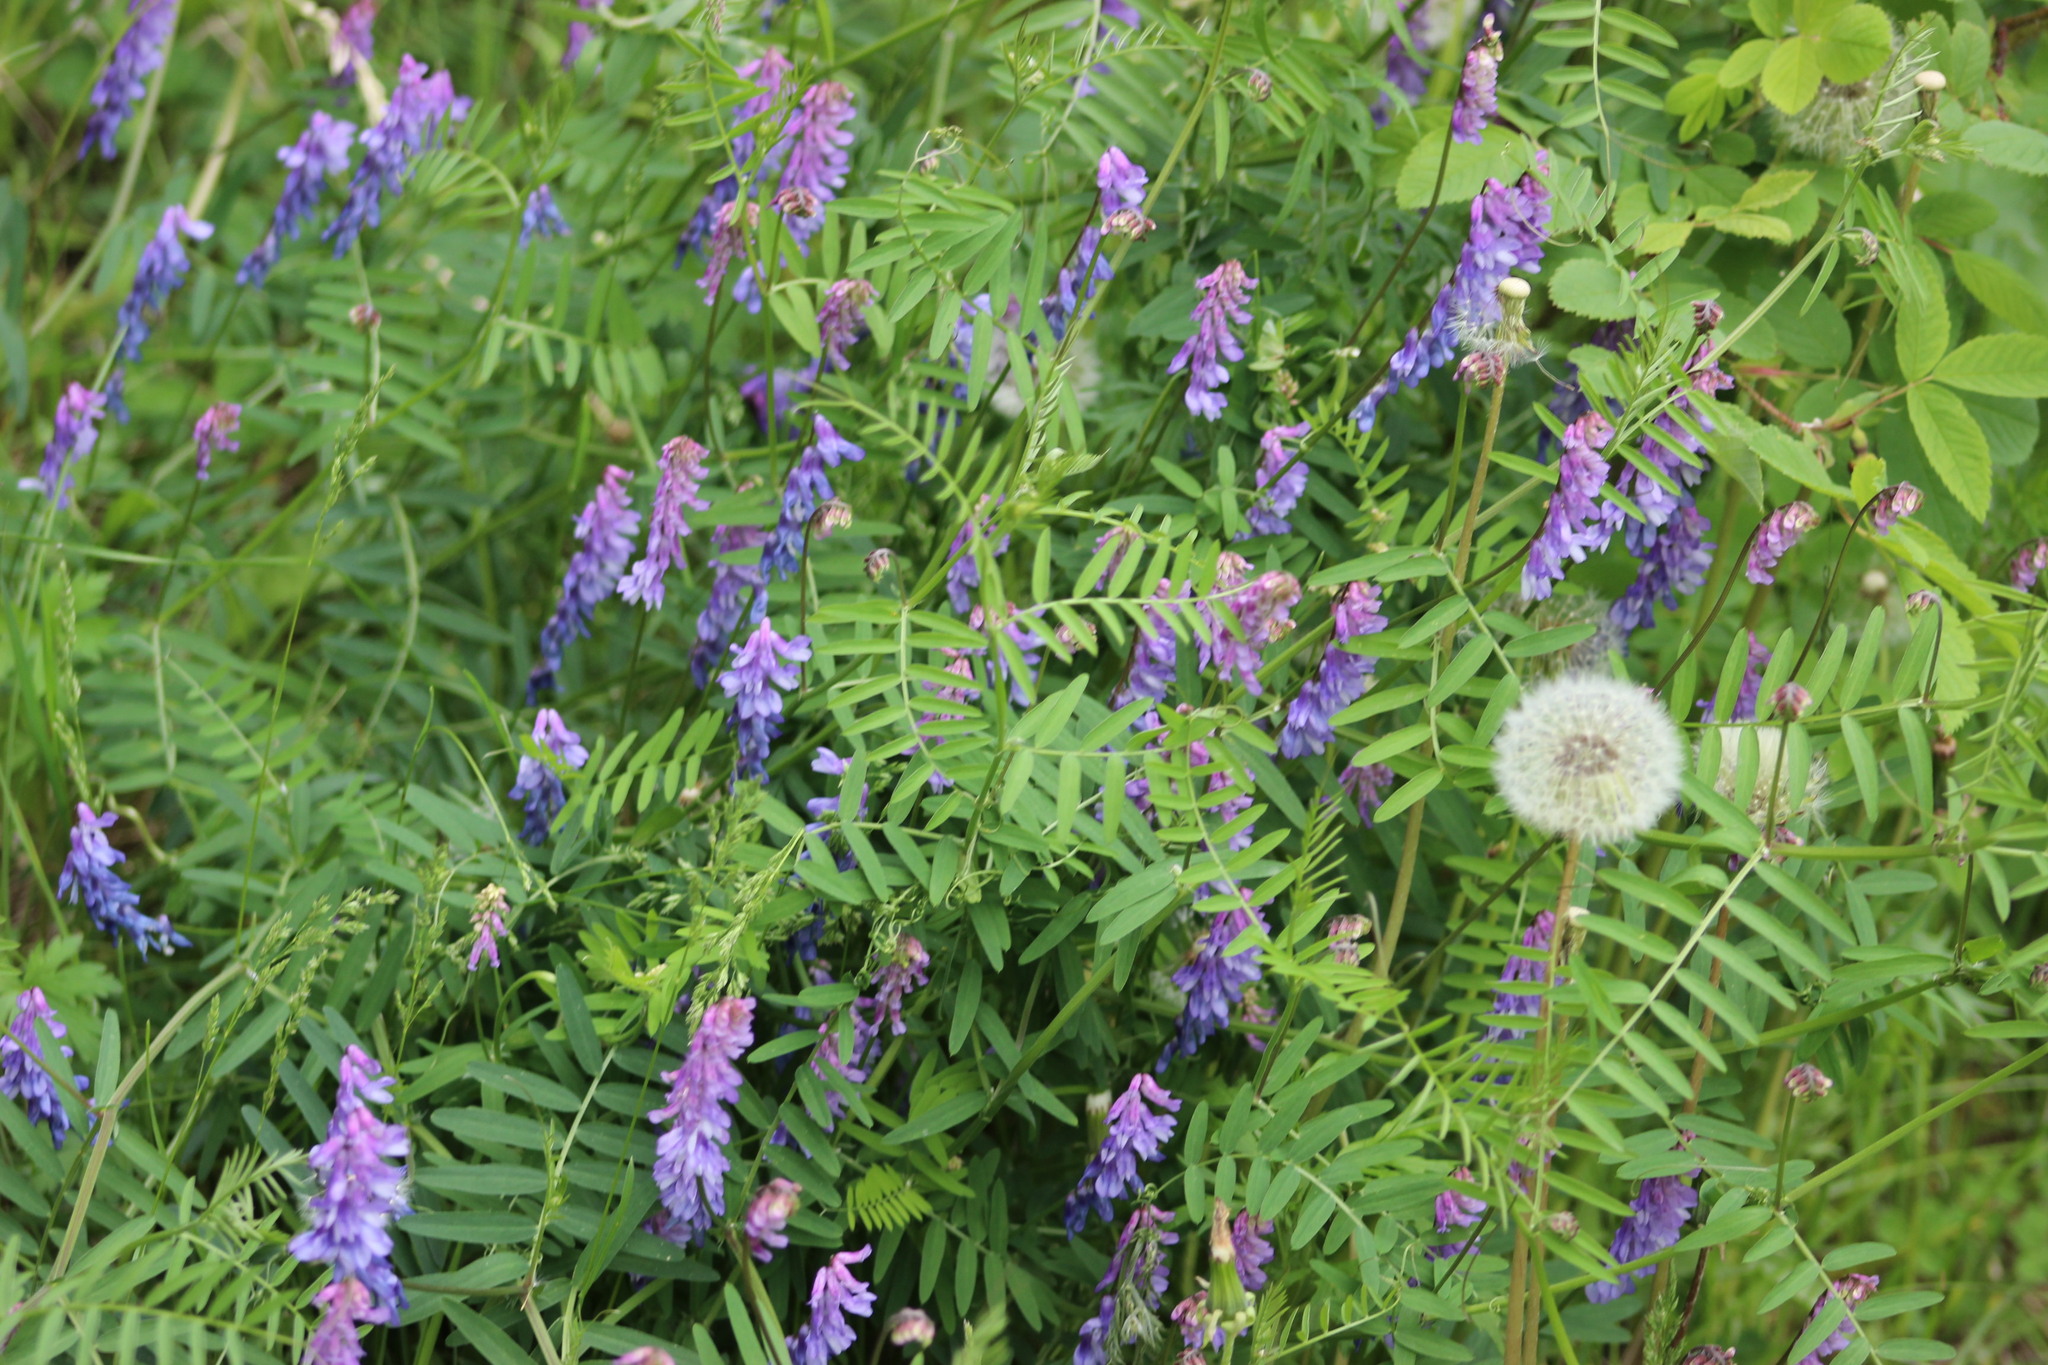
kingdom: Plantae
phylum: Tracheophyta
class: Magnoliopsida
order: Fabales
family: Fabaceae
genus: Vicia
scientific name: Vicia cracca
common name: Bird vetch
